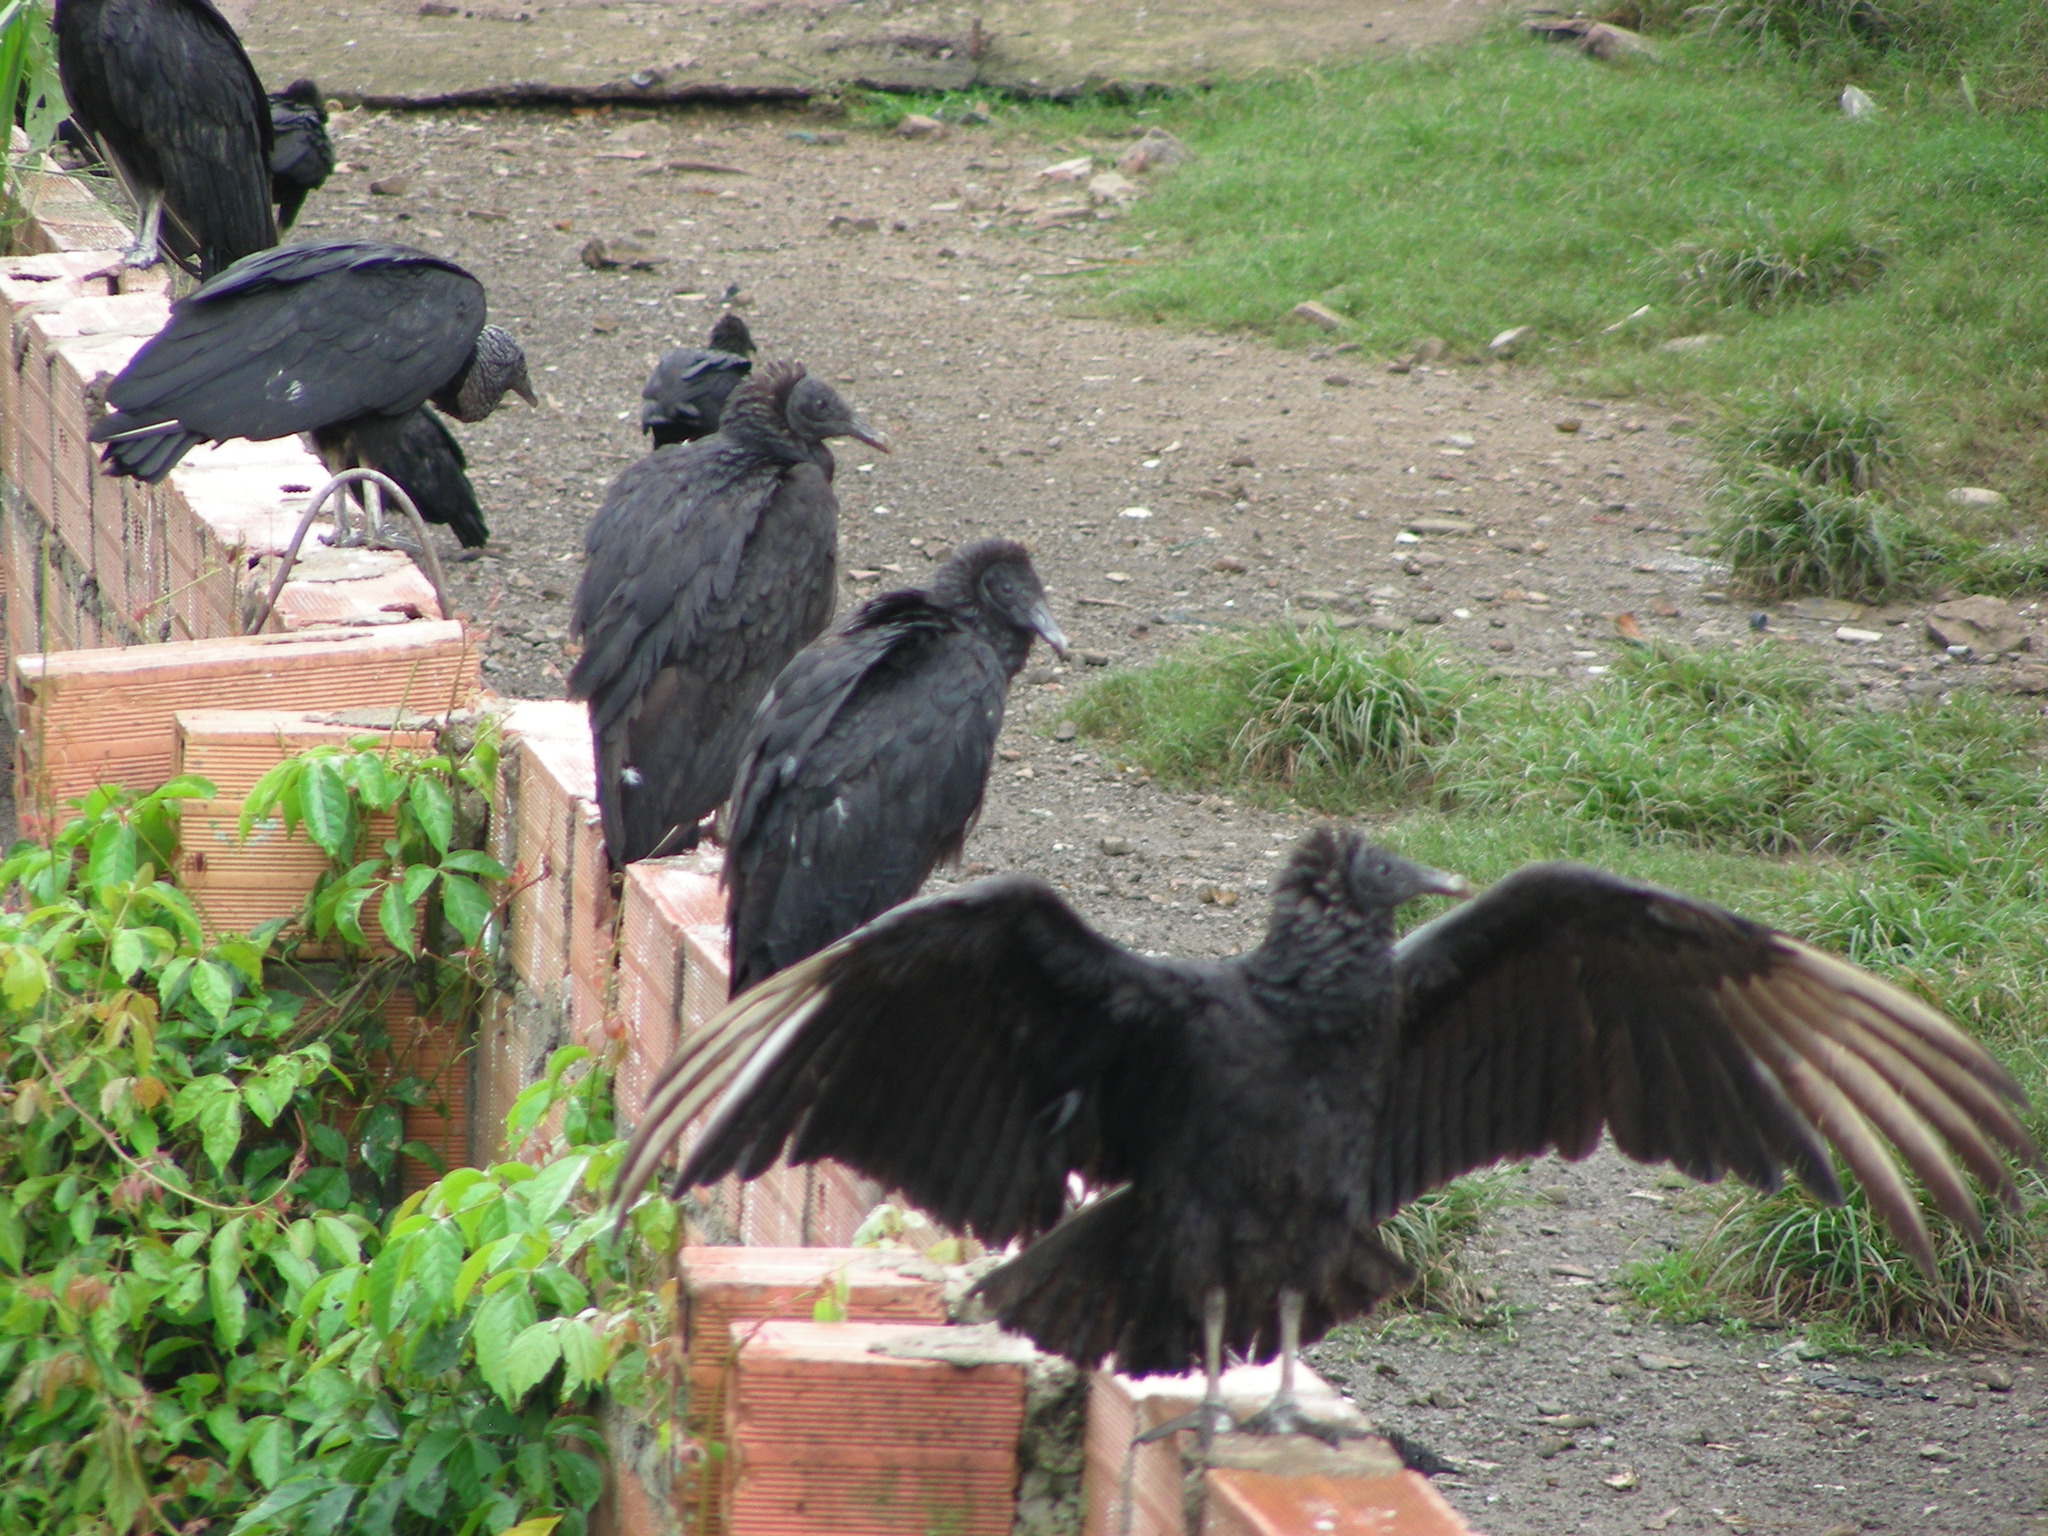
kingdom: Animalia
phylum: Chordata
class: Aves
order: Accipitriformes
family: Cathartidae
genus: Coragyps
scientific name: Coragyps atratus
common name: Black vulture
